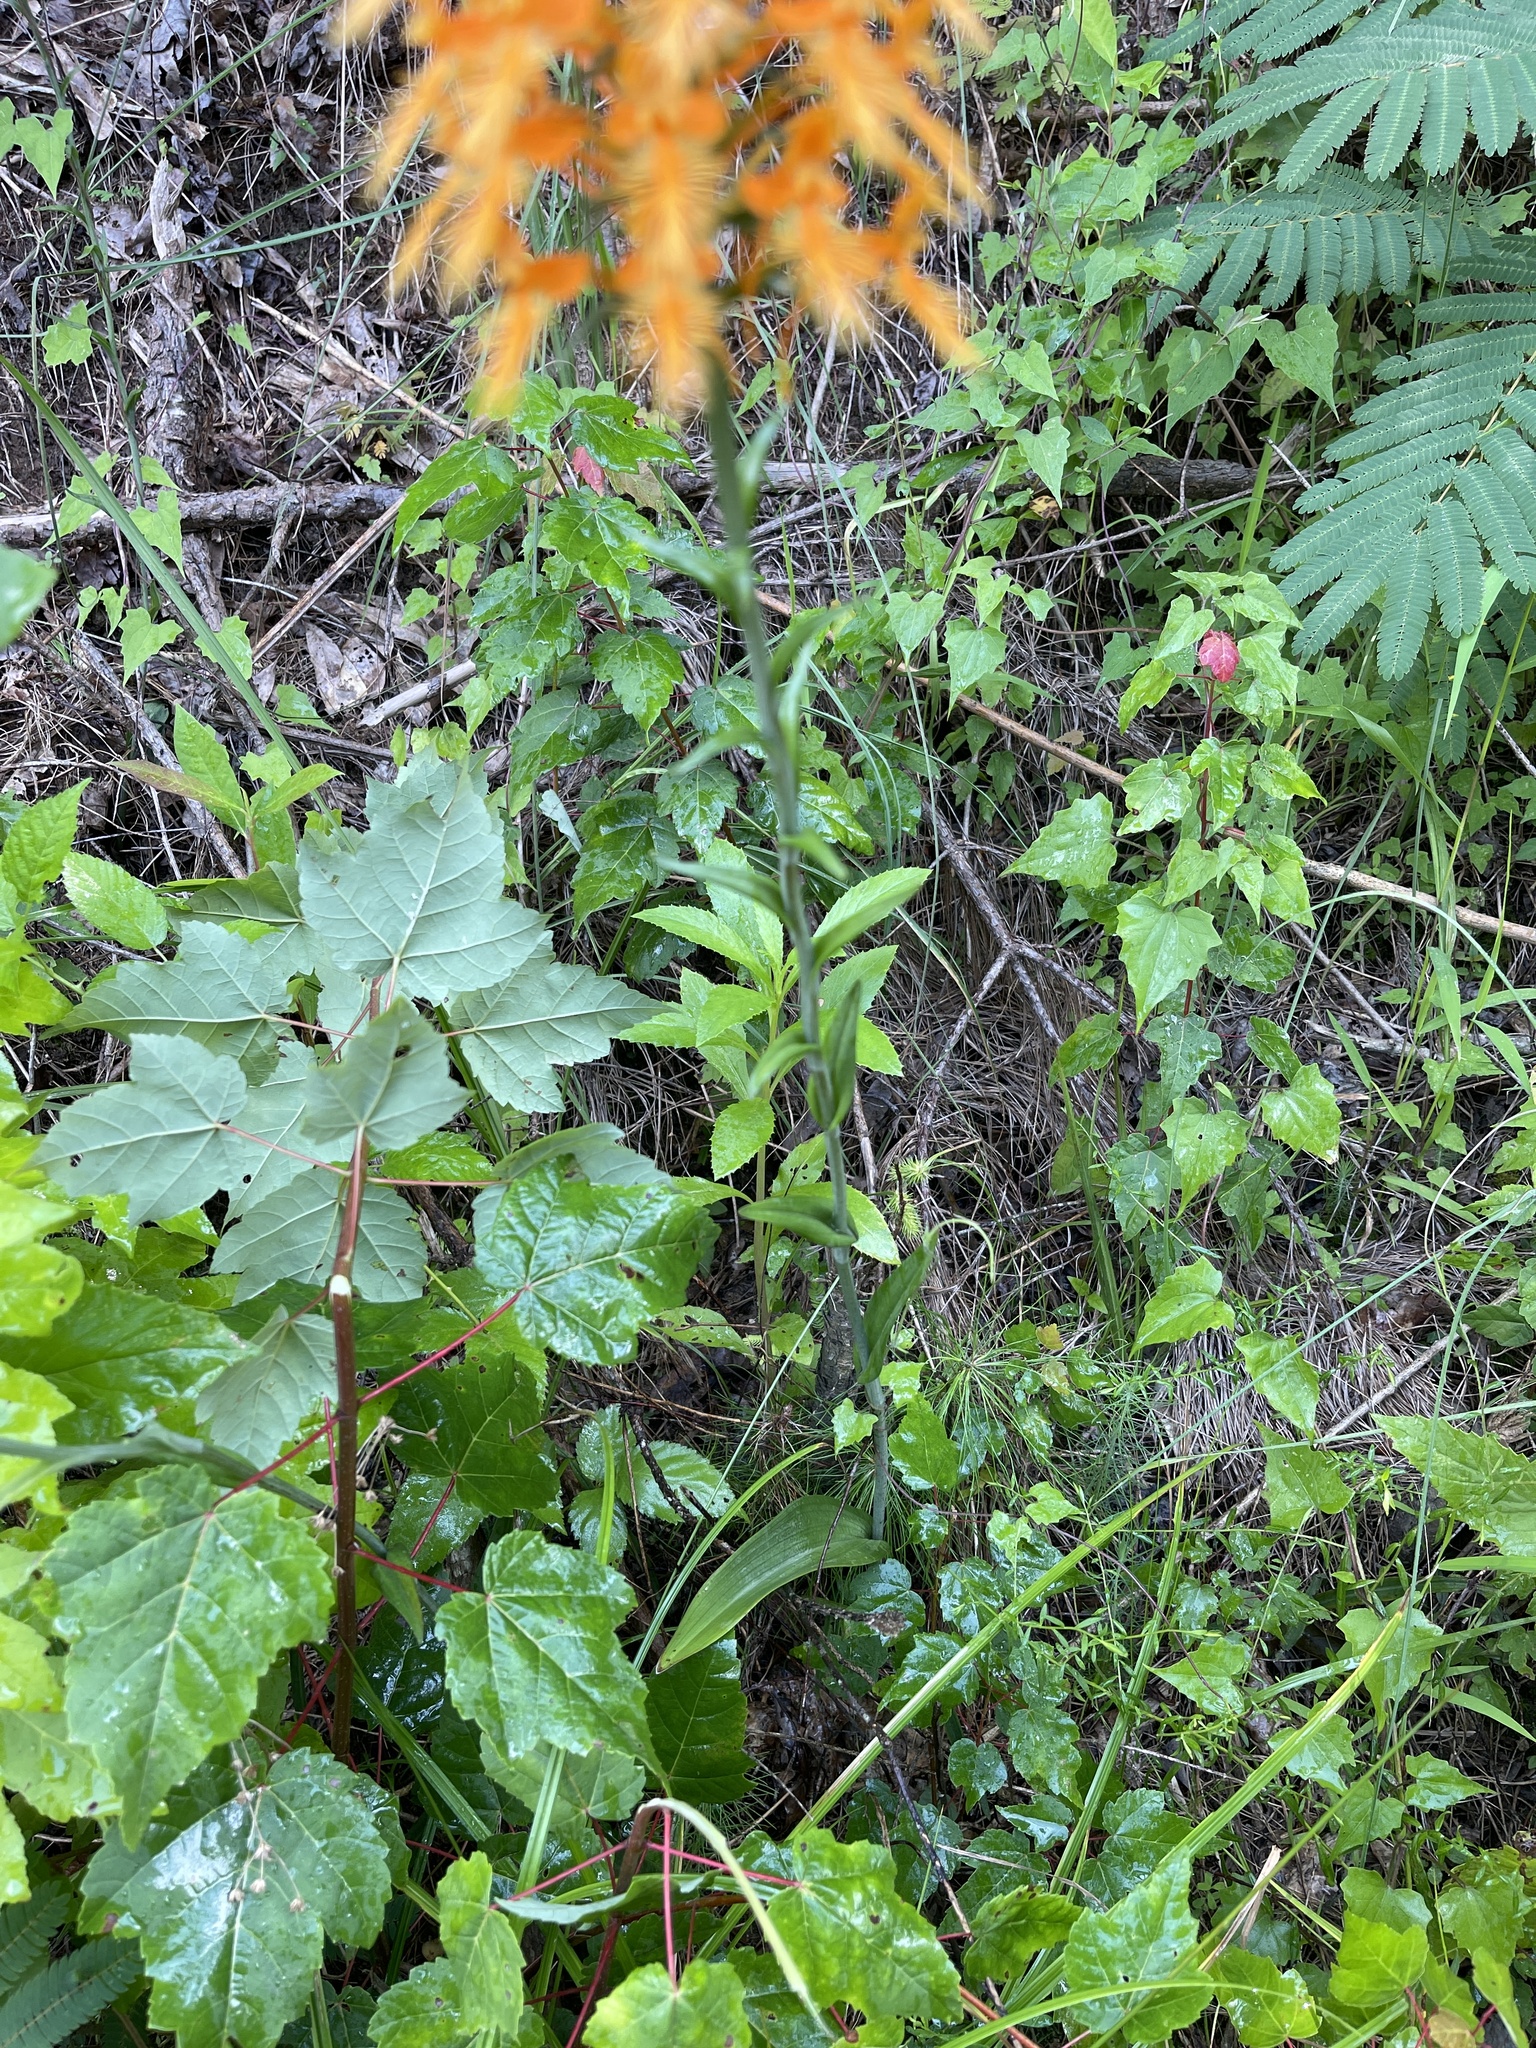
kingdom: Plantae
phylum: Tracheophyta
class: Liliopsida
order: Asparagales
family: Orchidaceae
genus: Platanthera
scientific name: Platanthera ciliaris
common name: Yellow fringed orchid
